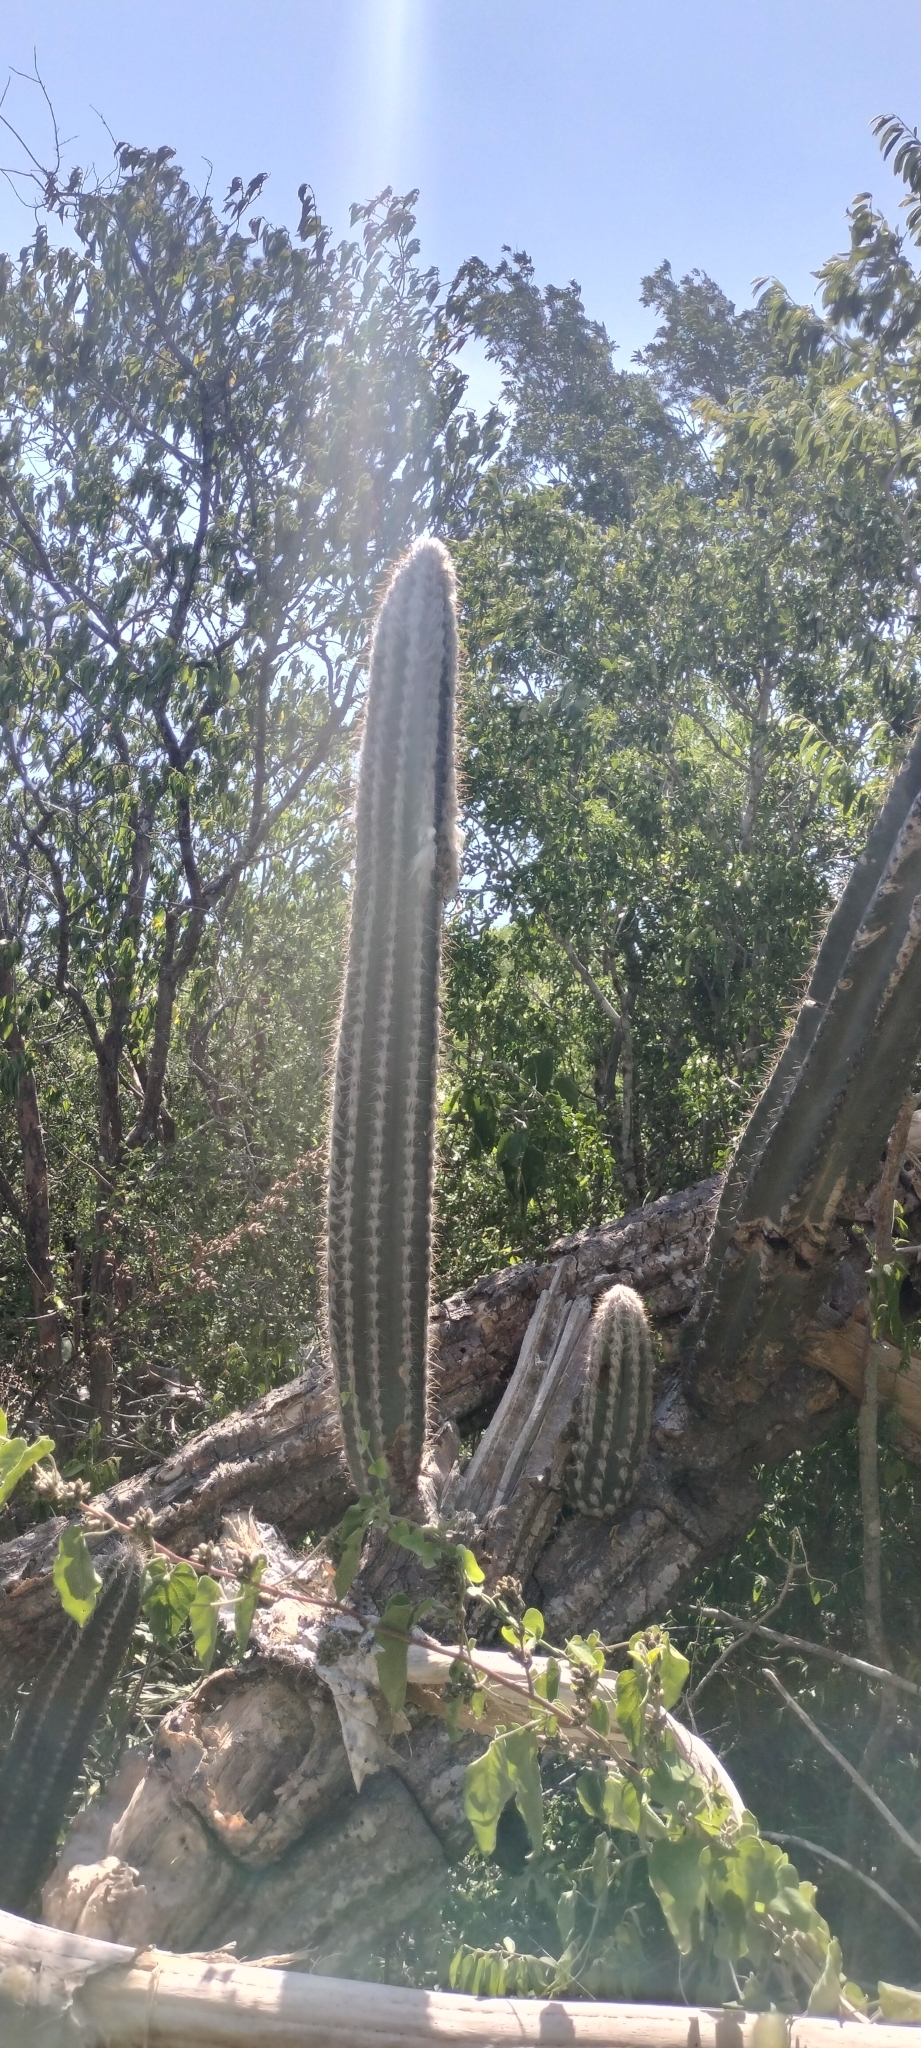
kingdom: Plantae
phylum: Tracheophyta
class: Magnoliopsida
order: Caryophyllales
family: Cactaceae
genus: Pilosocereus
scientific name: Pilosocereus leucocephalus
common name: Old man cactus
